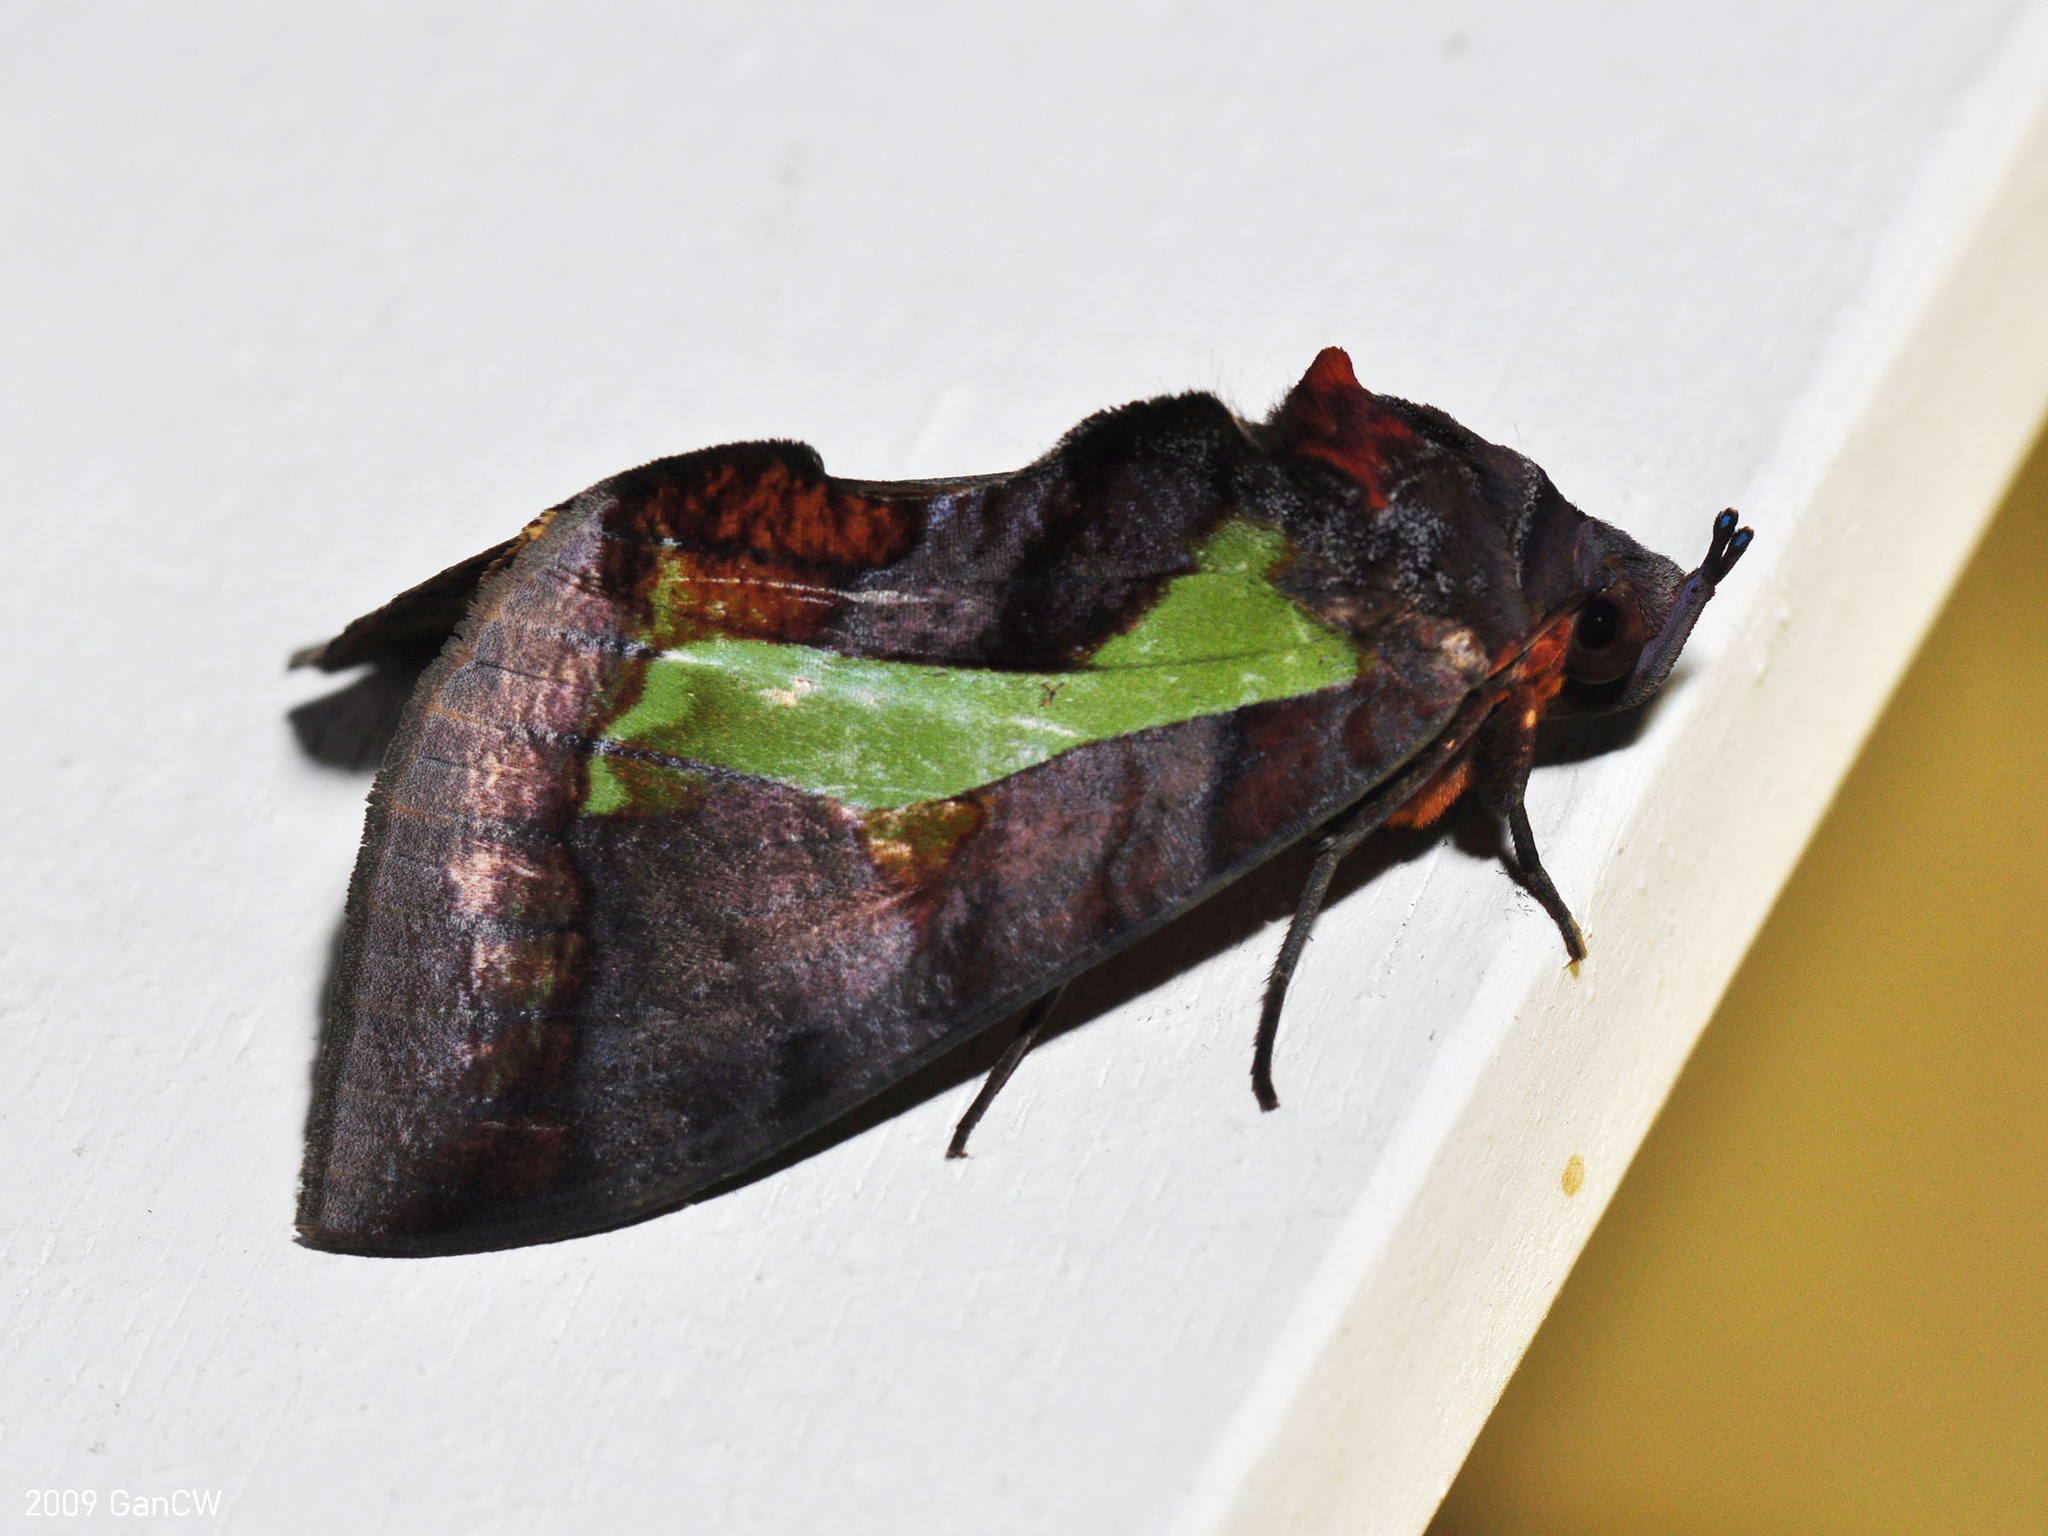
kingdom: Animalia
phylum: Arthropoda
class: Insecta
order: Lepidoptera
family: Erebidae
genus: Eudocima
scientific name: Eudocima homaena
